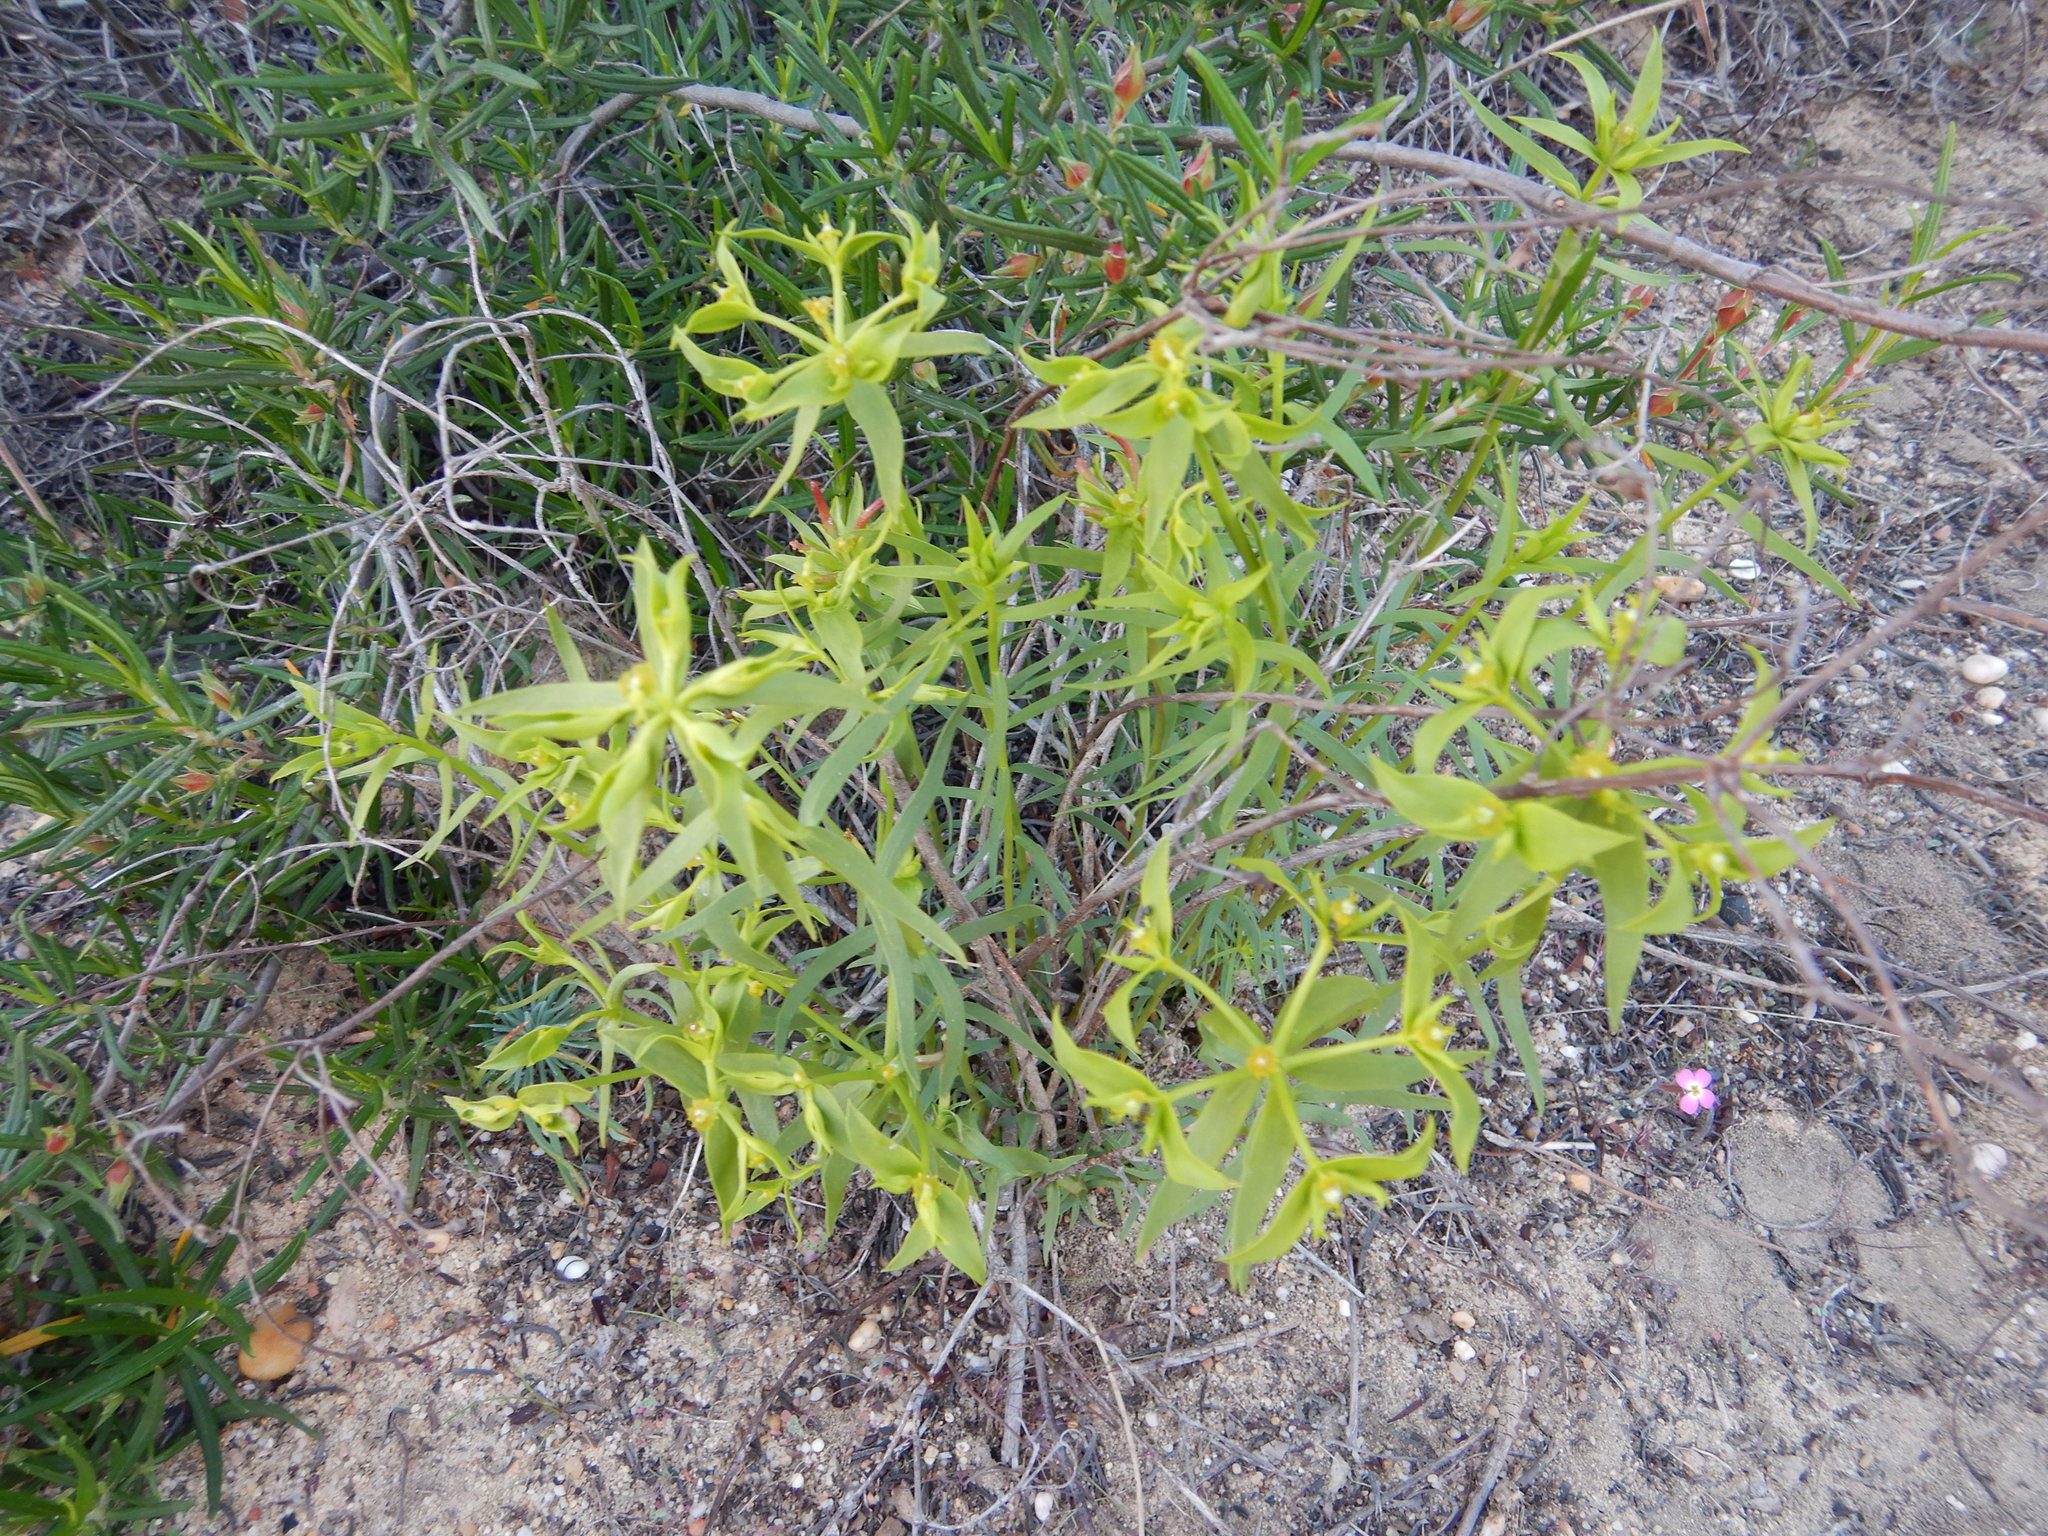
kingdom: Plantae
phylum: Tracheophyta
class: Magnoliopsida
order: Malpighiales
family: Euphorbiaceae
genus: Euphorbia
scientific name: Euphorbia boetica
